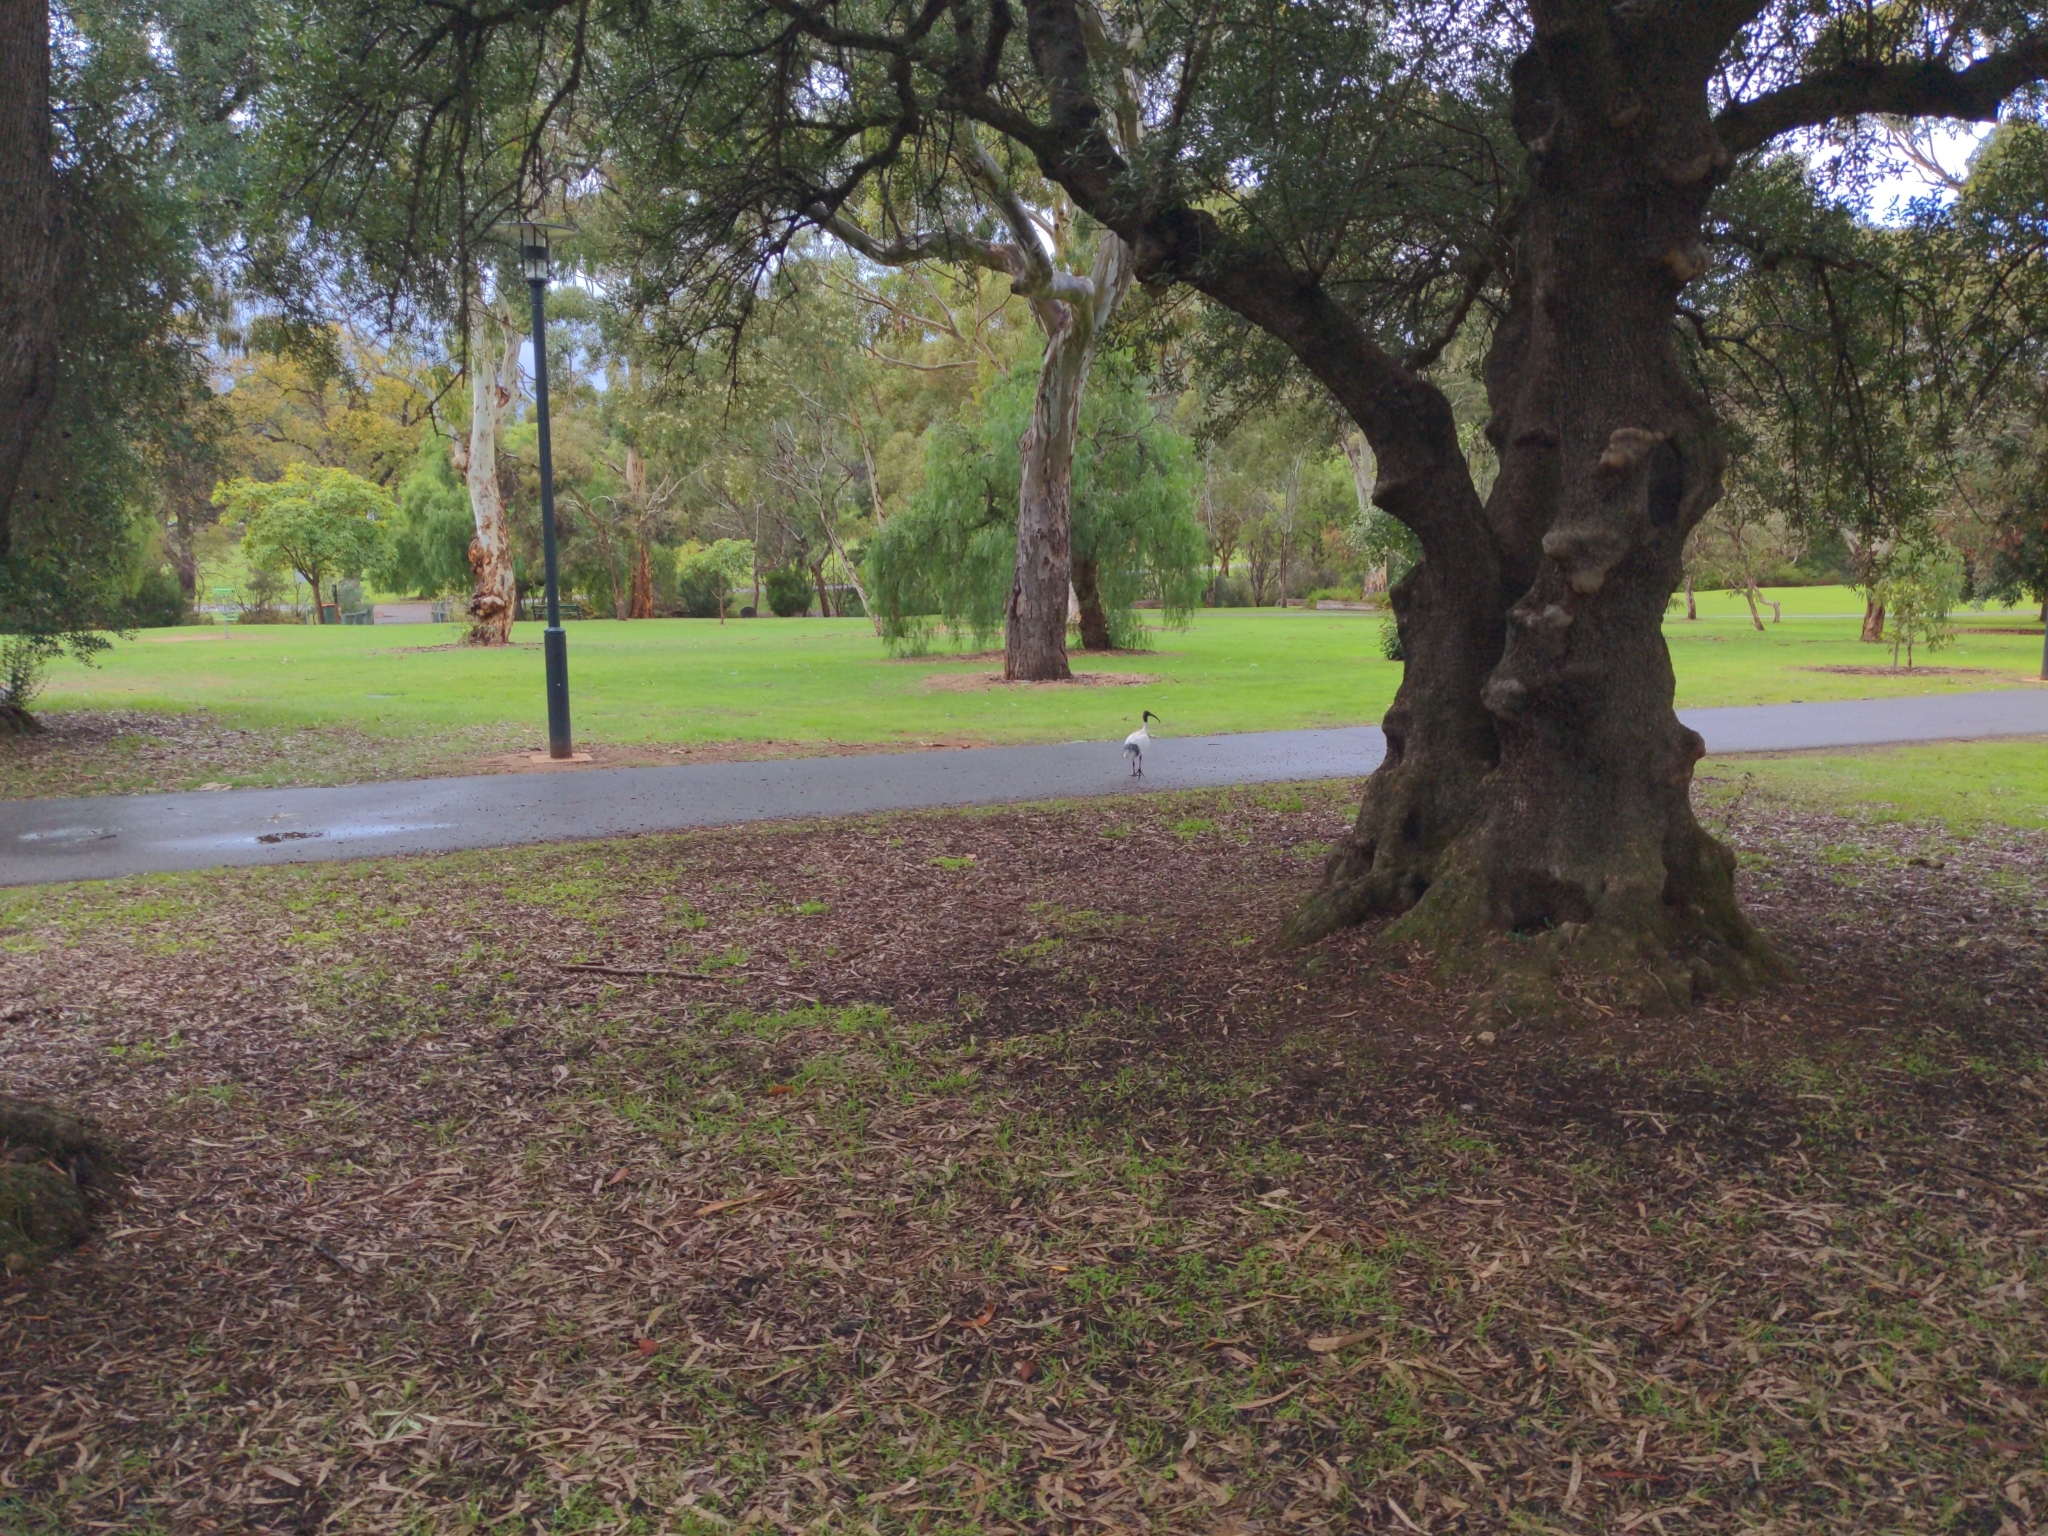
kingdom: Animalia
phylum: Chordata
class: Aves
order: Pelecaniformes
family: Threskiornithidae
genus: Threskiornis
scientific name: Threskiornis molucca
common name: Australian white ibis
